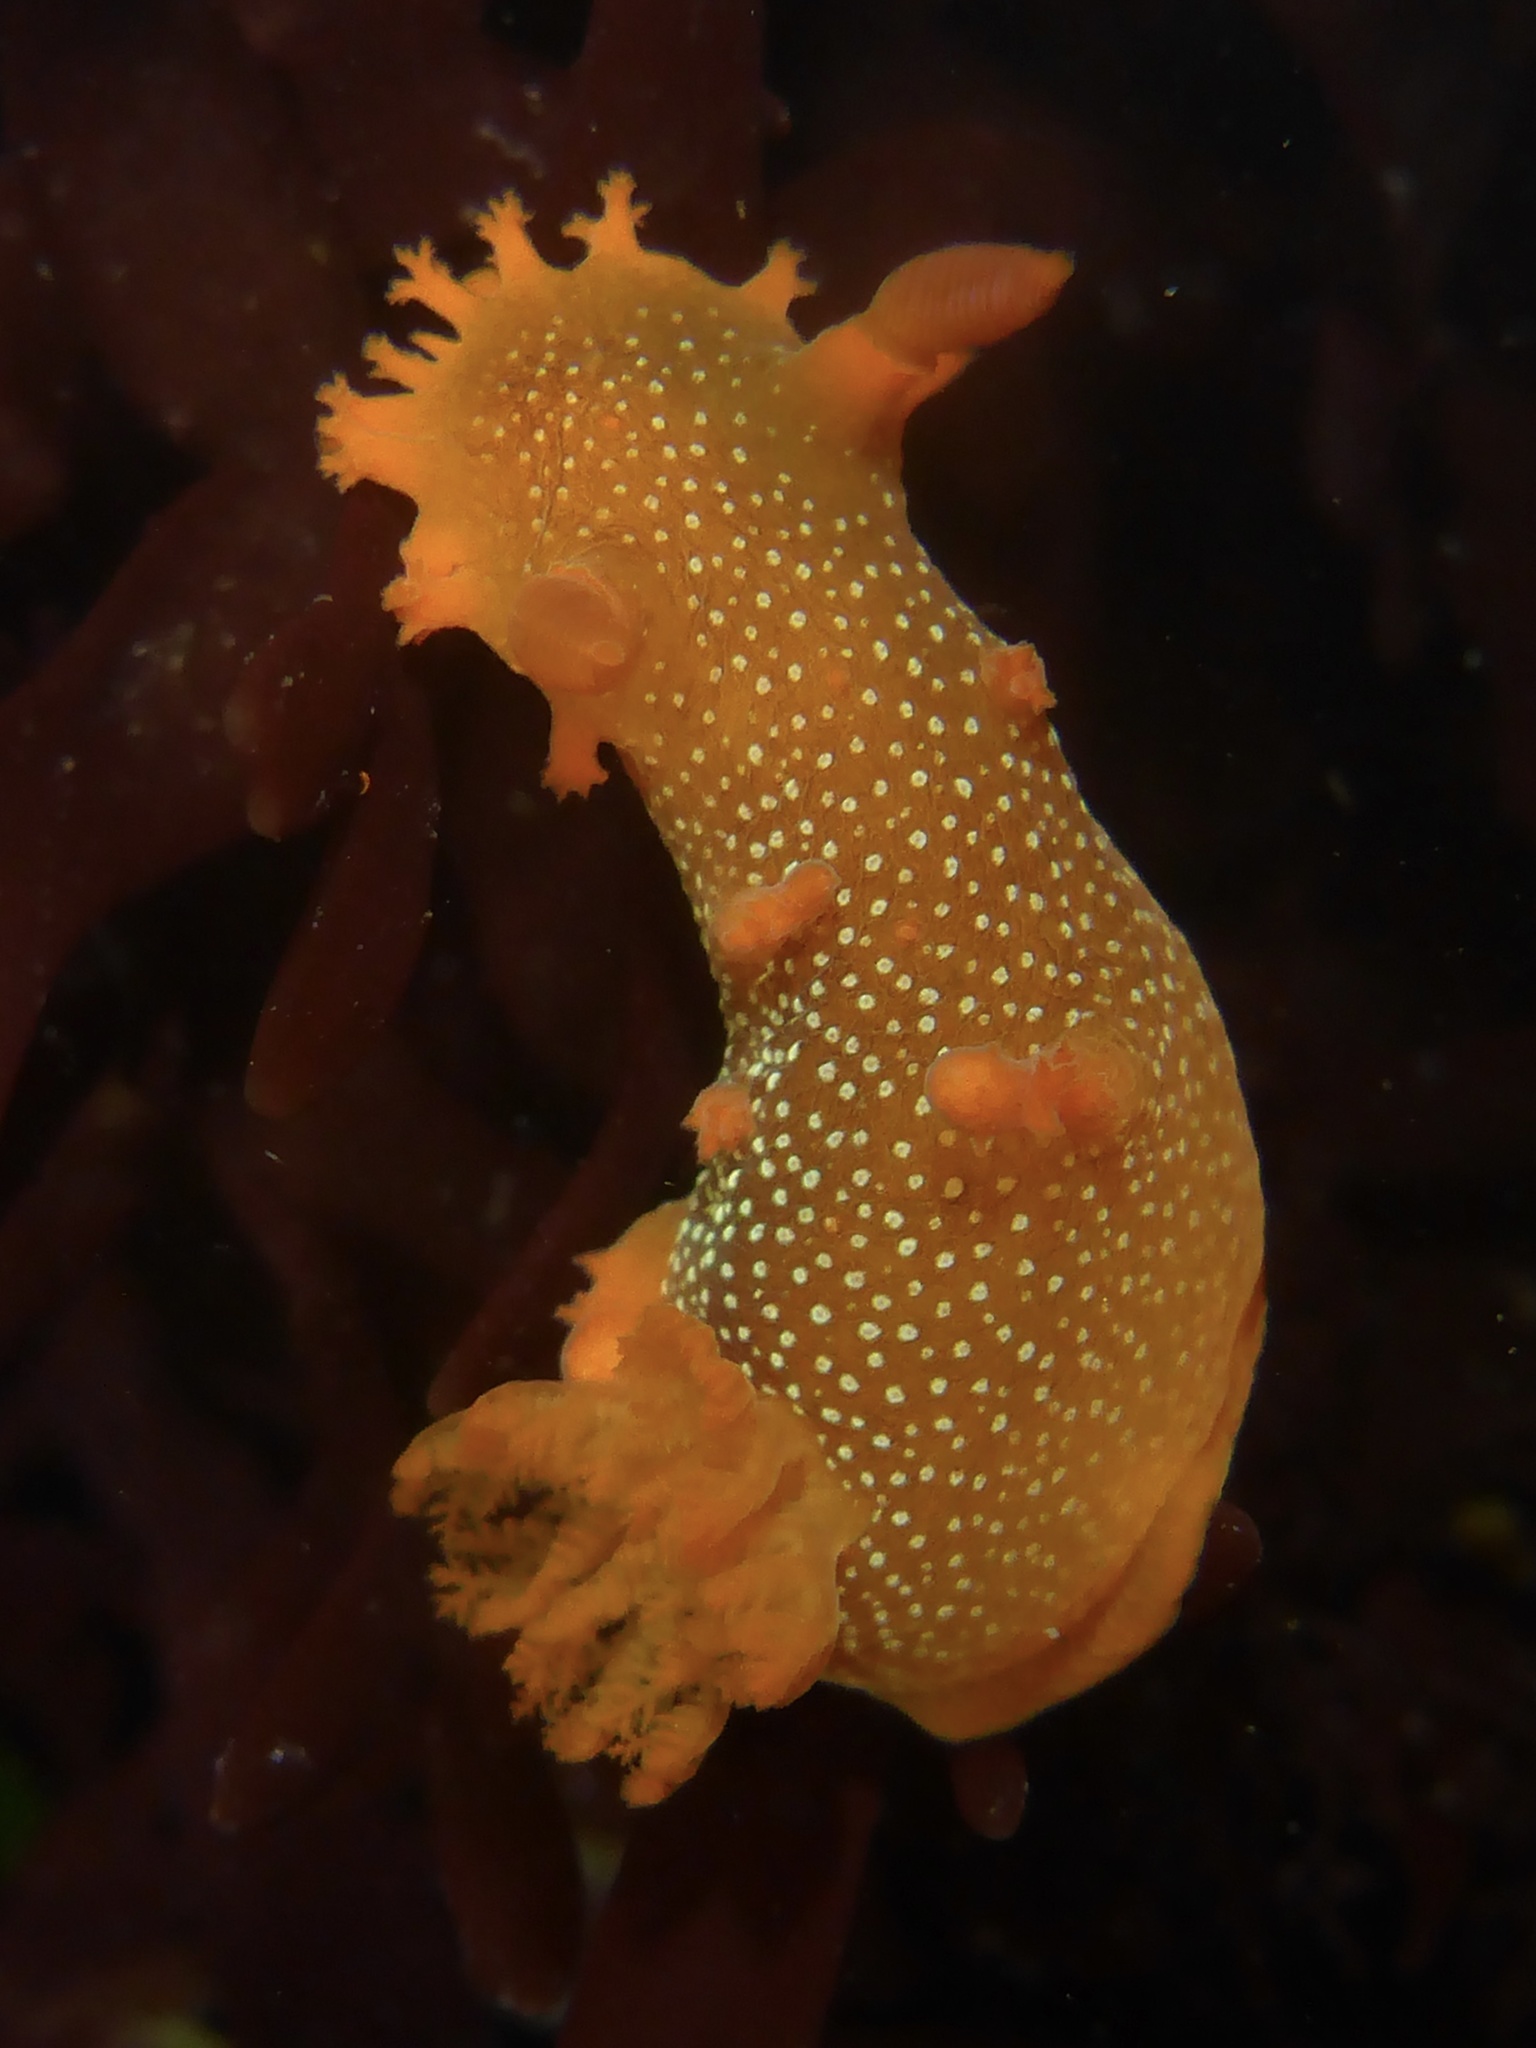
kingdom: Animalia
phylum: Mollusca
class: Gastropoda
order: Nudibranchia
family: Polyceridae
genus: Triopha
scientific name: Triopha maculata
